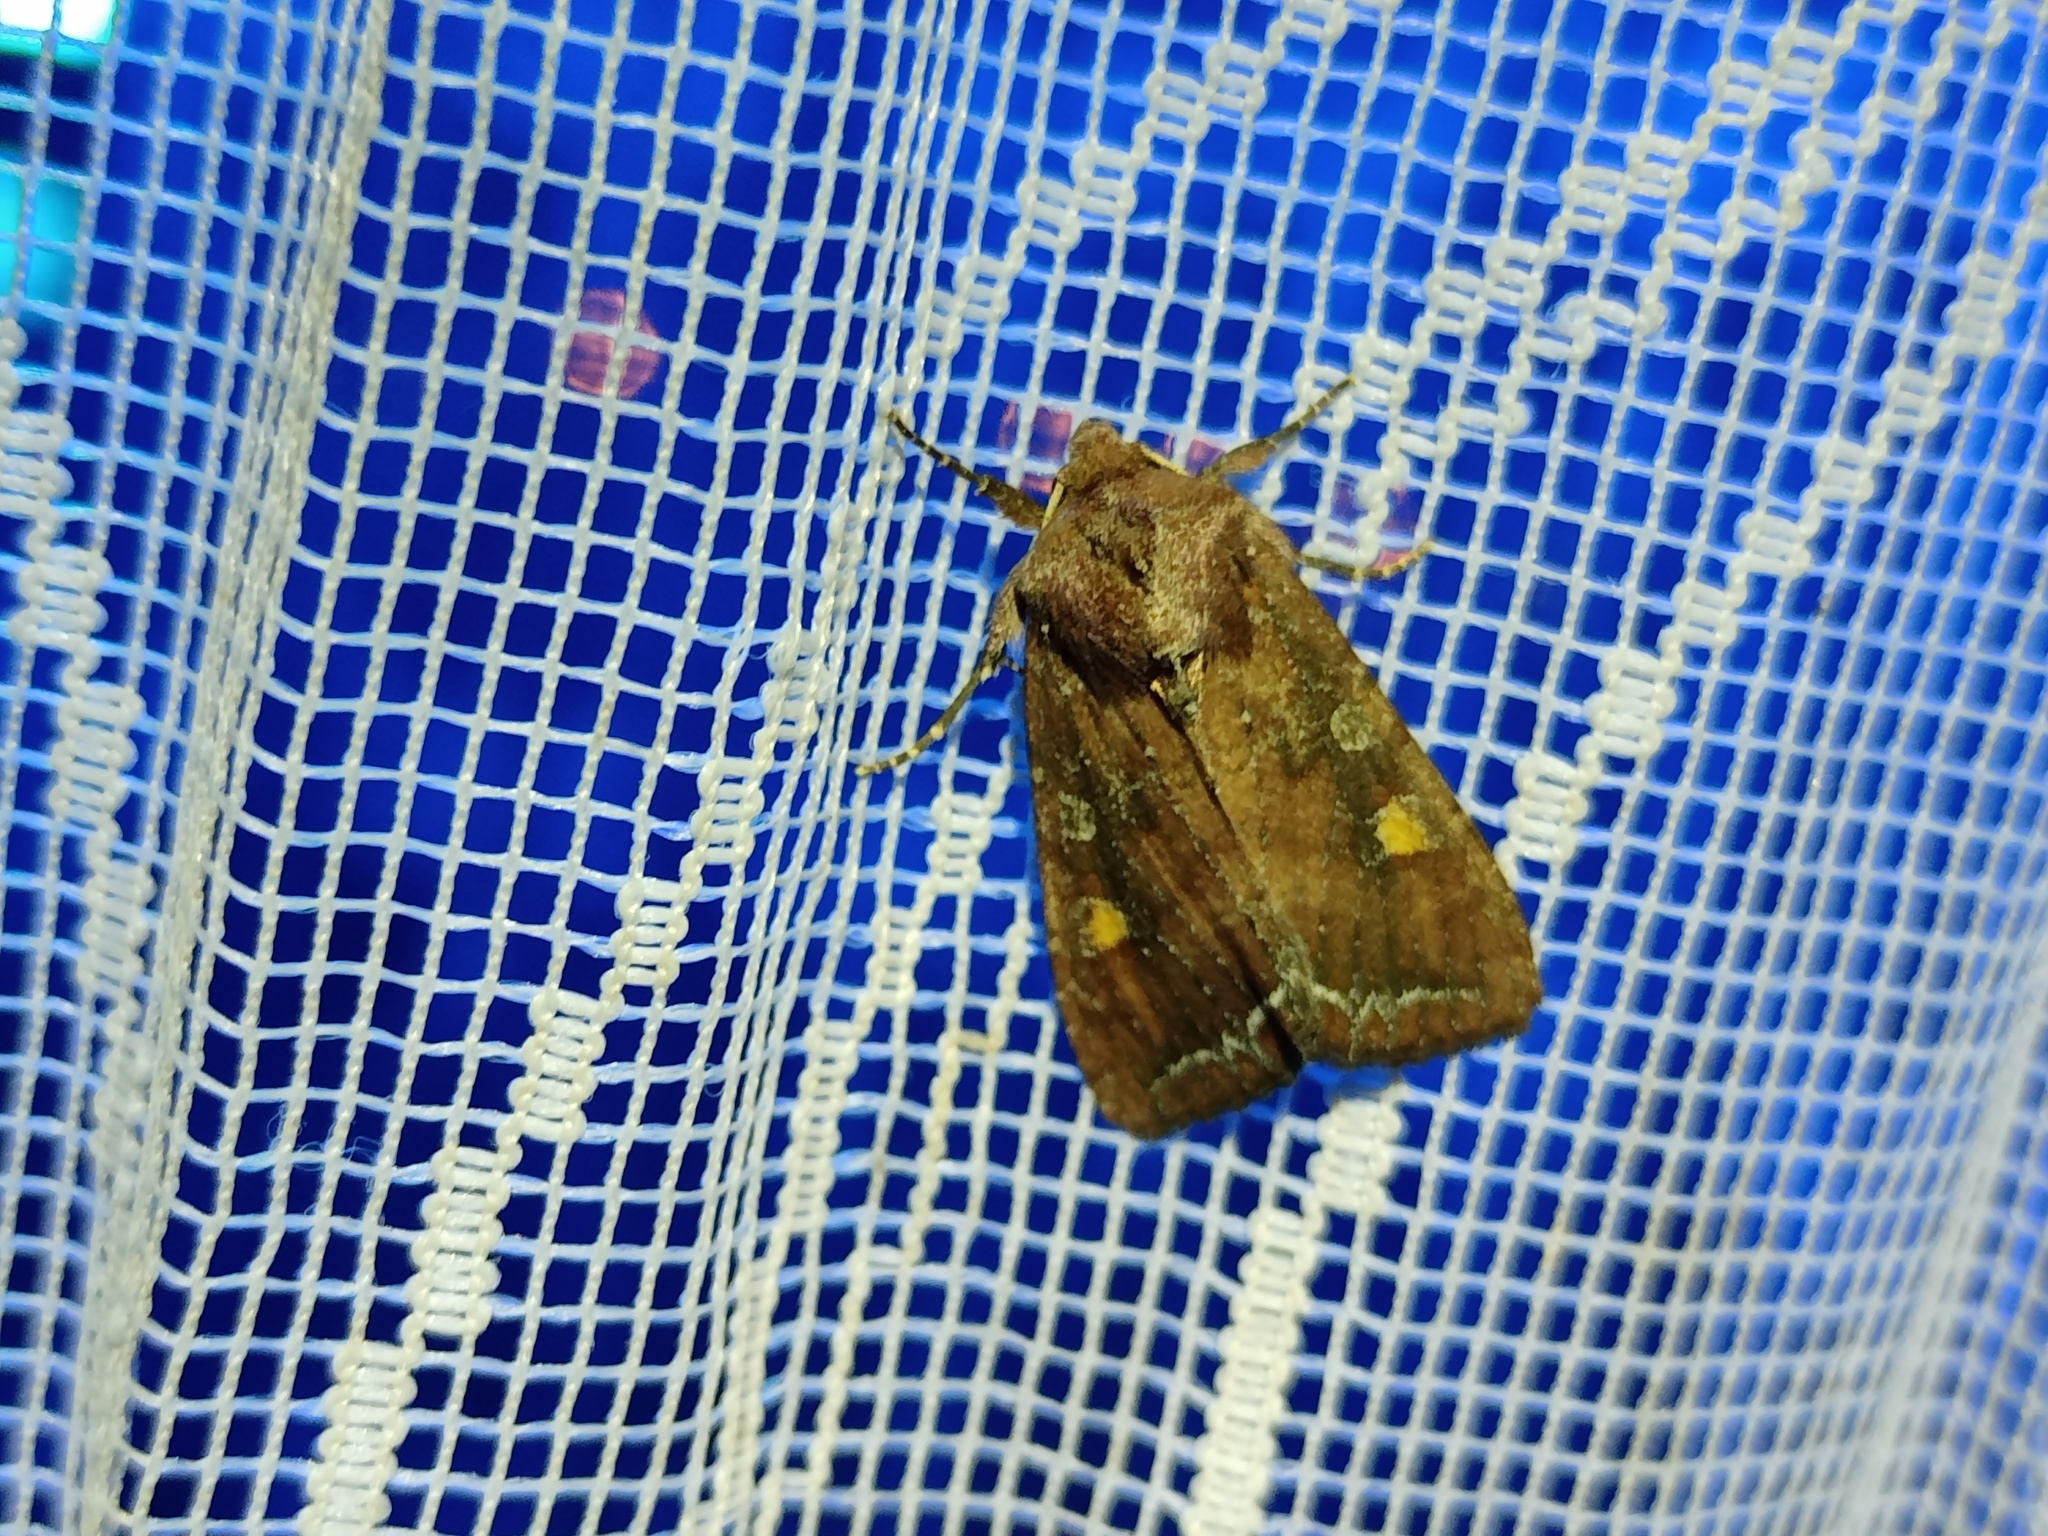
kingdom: Animalia
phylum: Arthropoda
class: Insecta
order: Lepidoptera
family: Noctuidae
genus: Lacanobia
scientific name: Lacanobia oleracea
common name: Bright-line brown-eye
